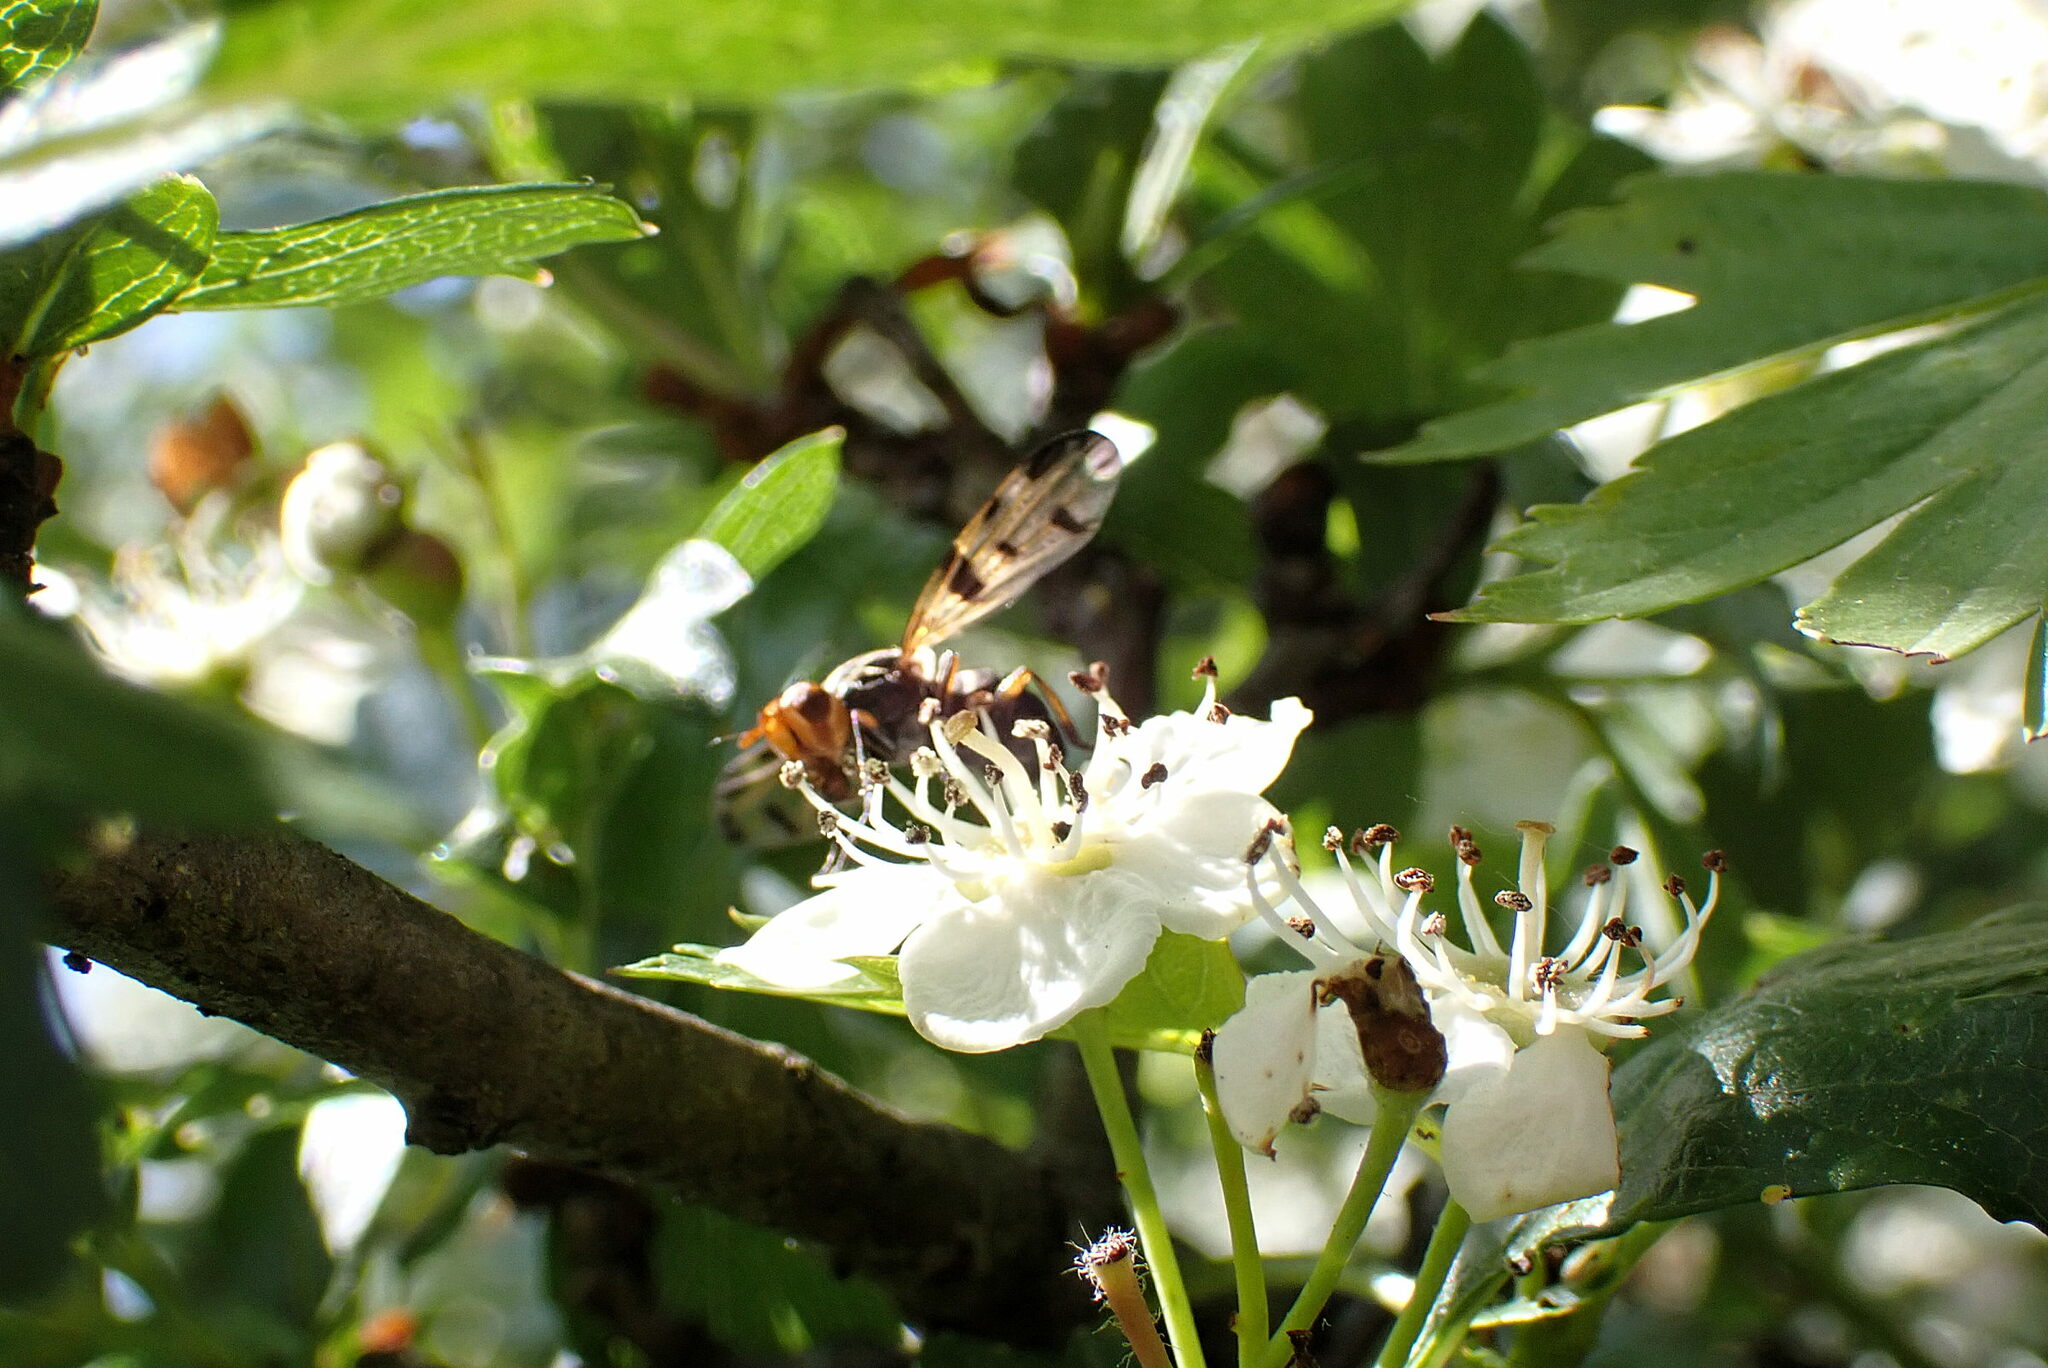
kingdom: Animalia
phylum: Arthropoda
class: Insecta
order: Diptera
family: Ulidiidae
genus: Otites
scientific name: Otites porcus
